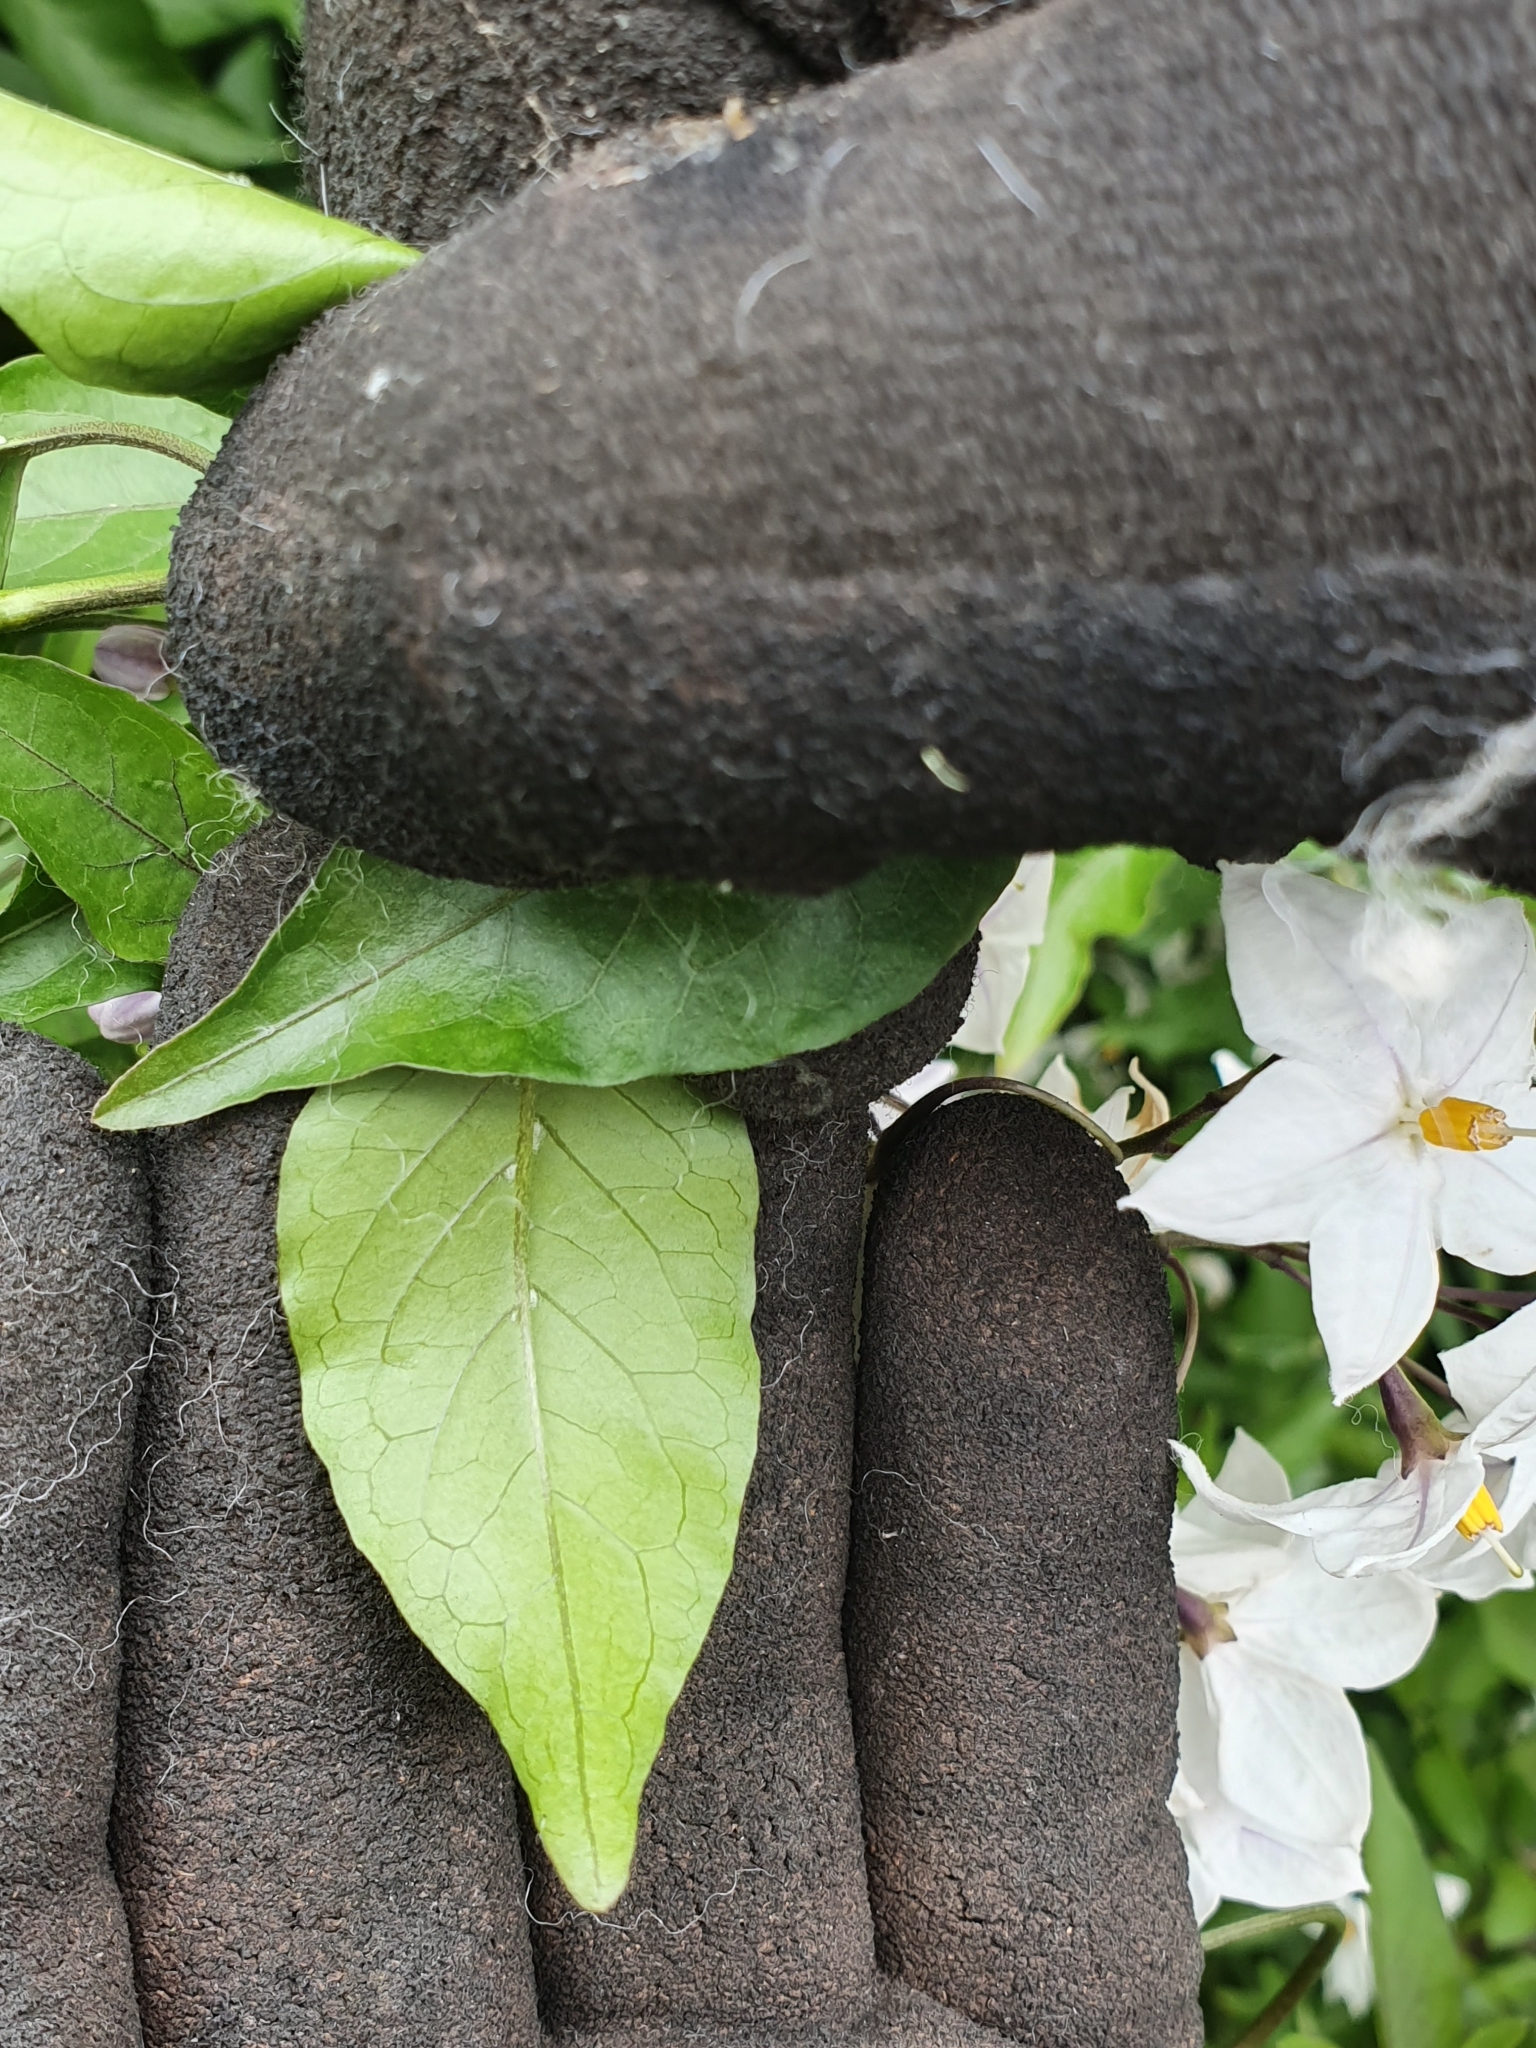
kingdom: Plantae
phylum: Tracheophyta
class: Magnoliopsida
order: Solanales
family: Solanaceae
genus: Solanum
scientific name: Solanum laxum
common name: Nightshade
